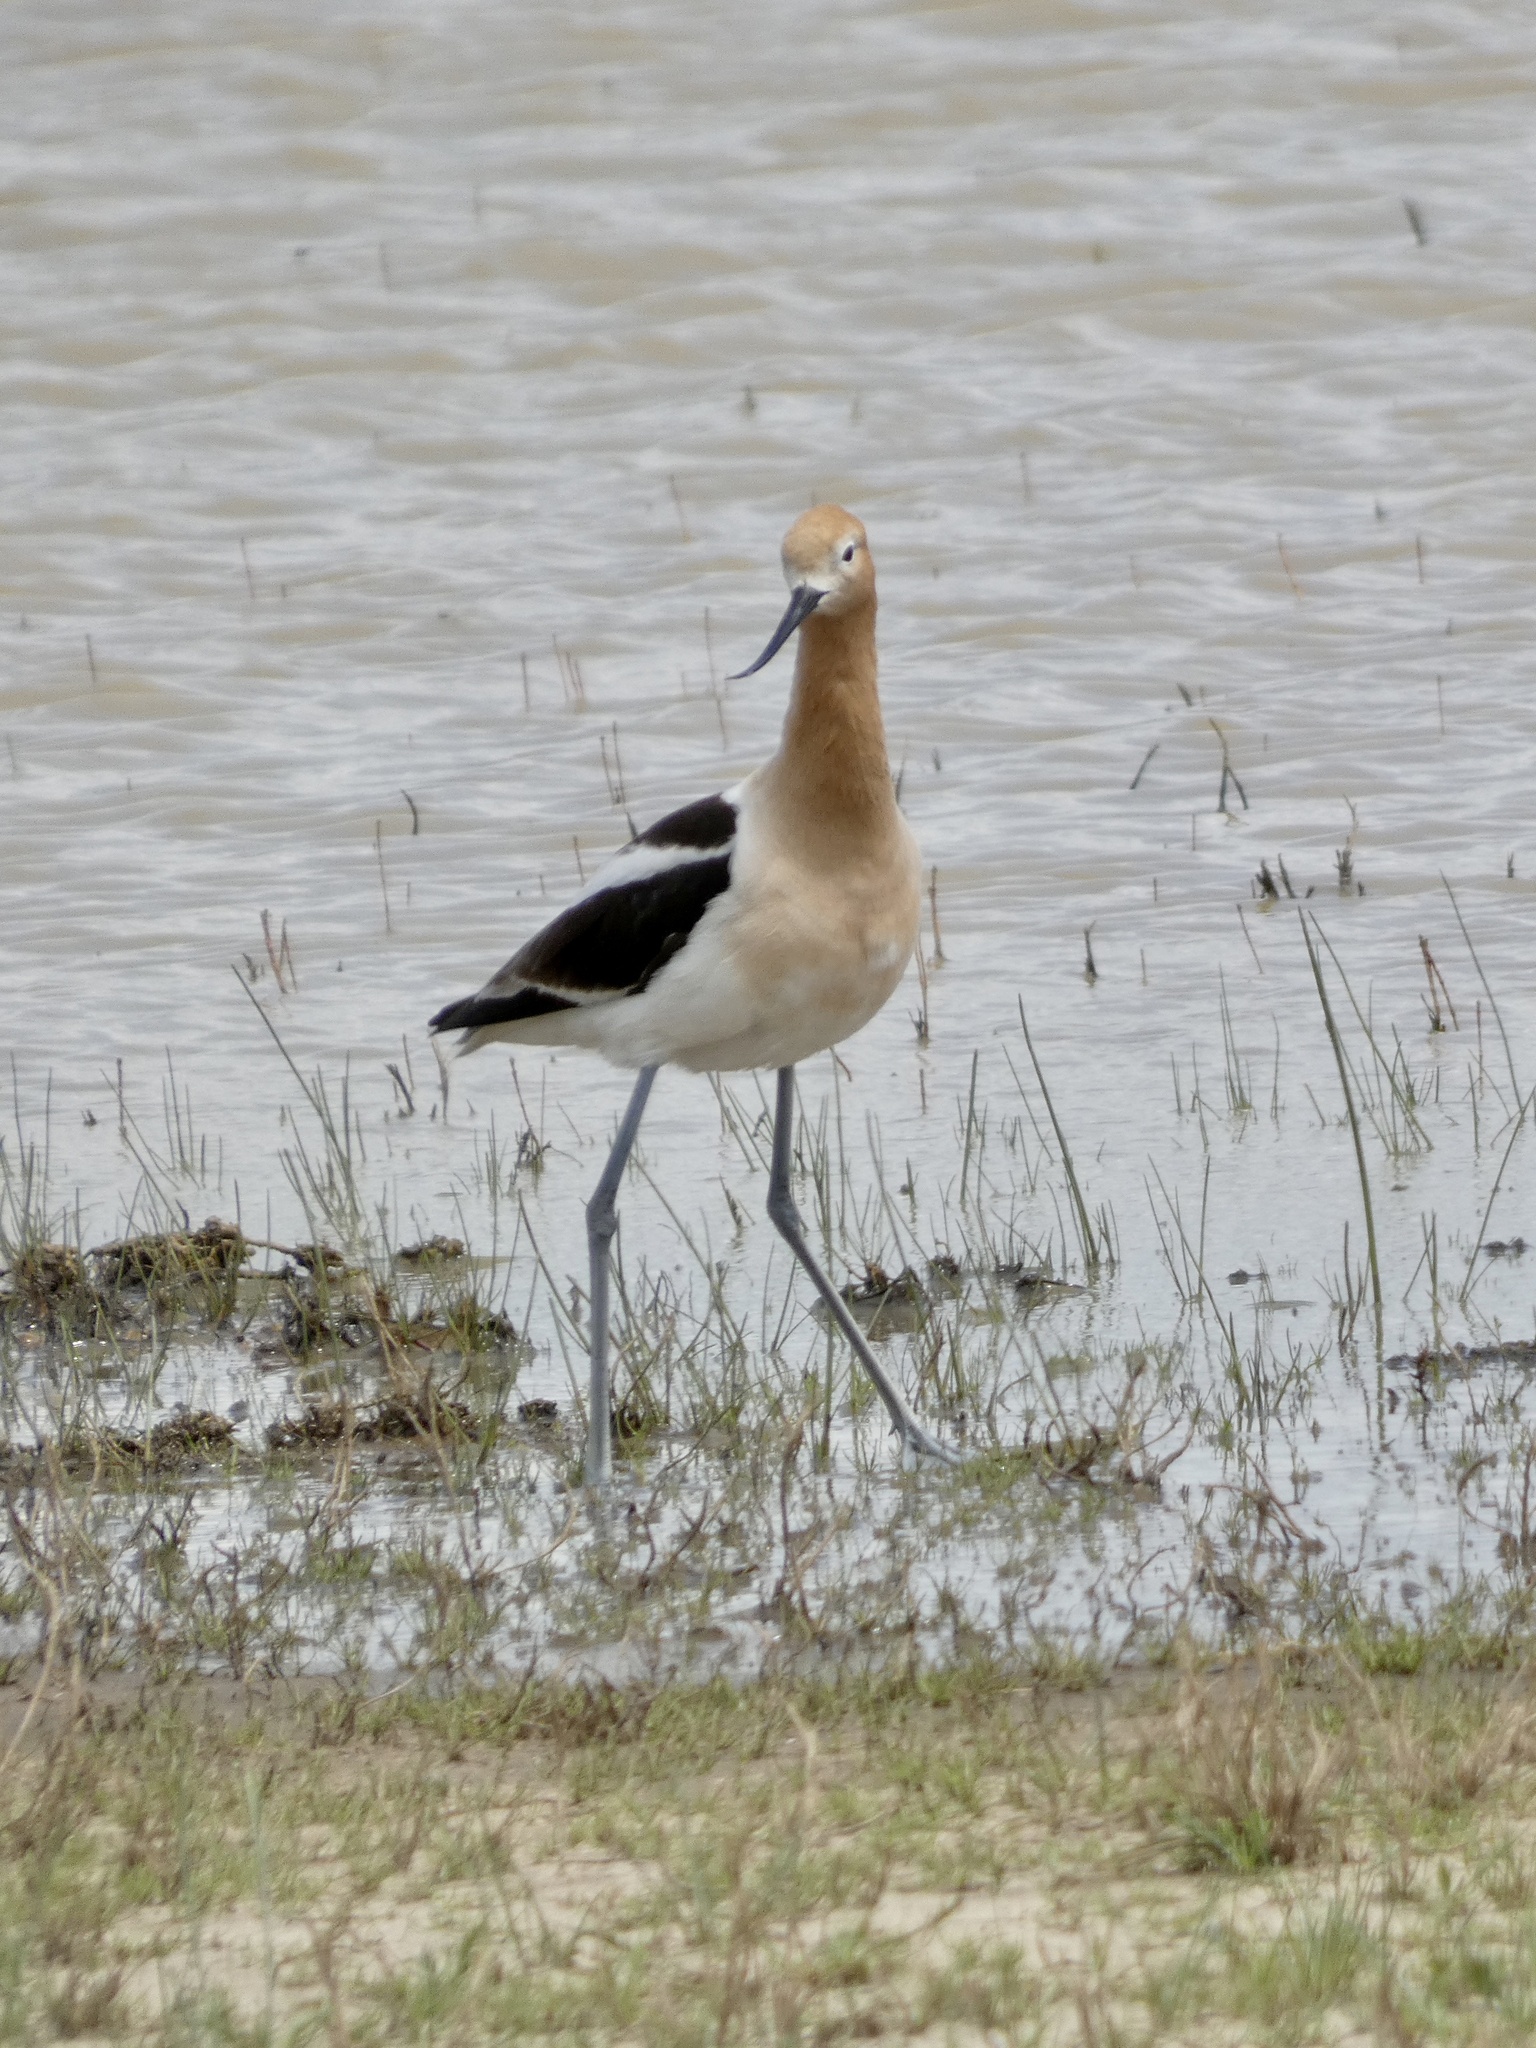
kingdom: Animalia
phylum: Chordata
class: Aves
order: Charadriiformes
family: Recurvirostridae
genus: Recurvirostra
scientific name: Recurvirostra americana
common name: American avocet
